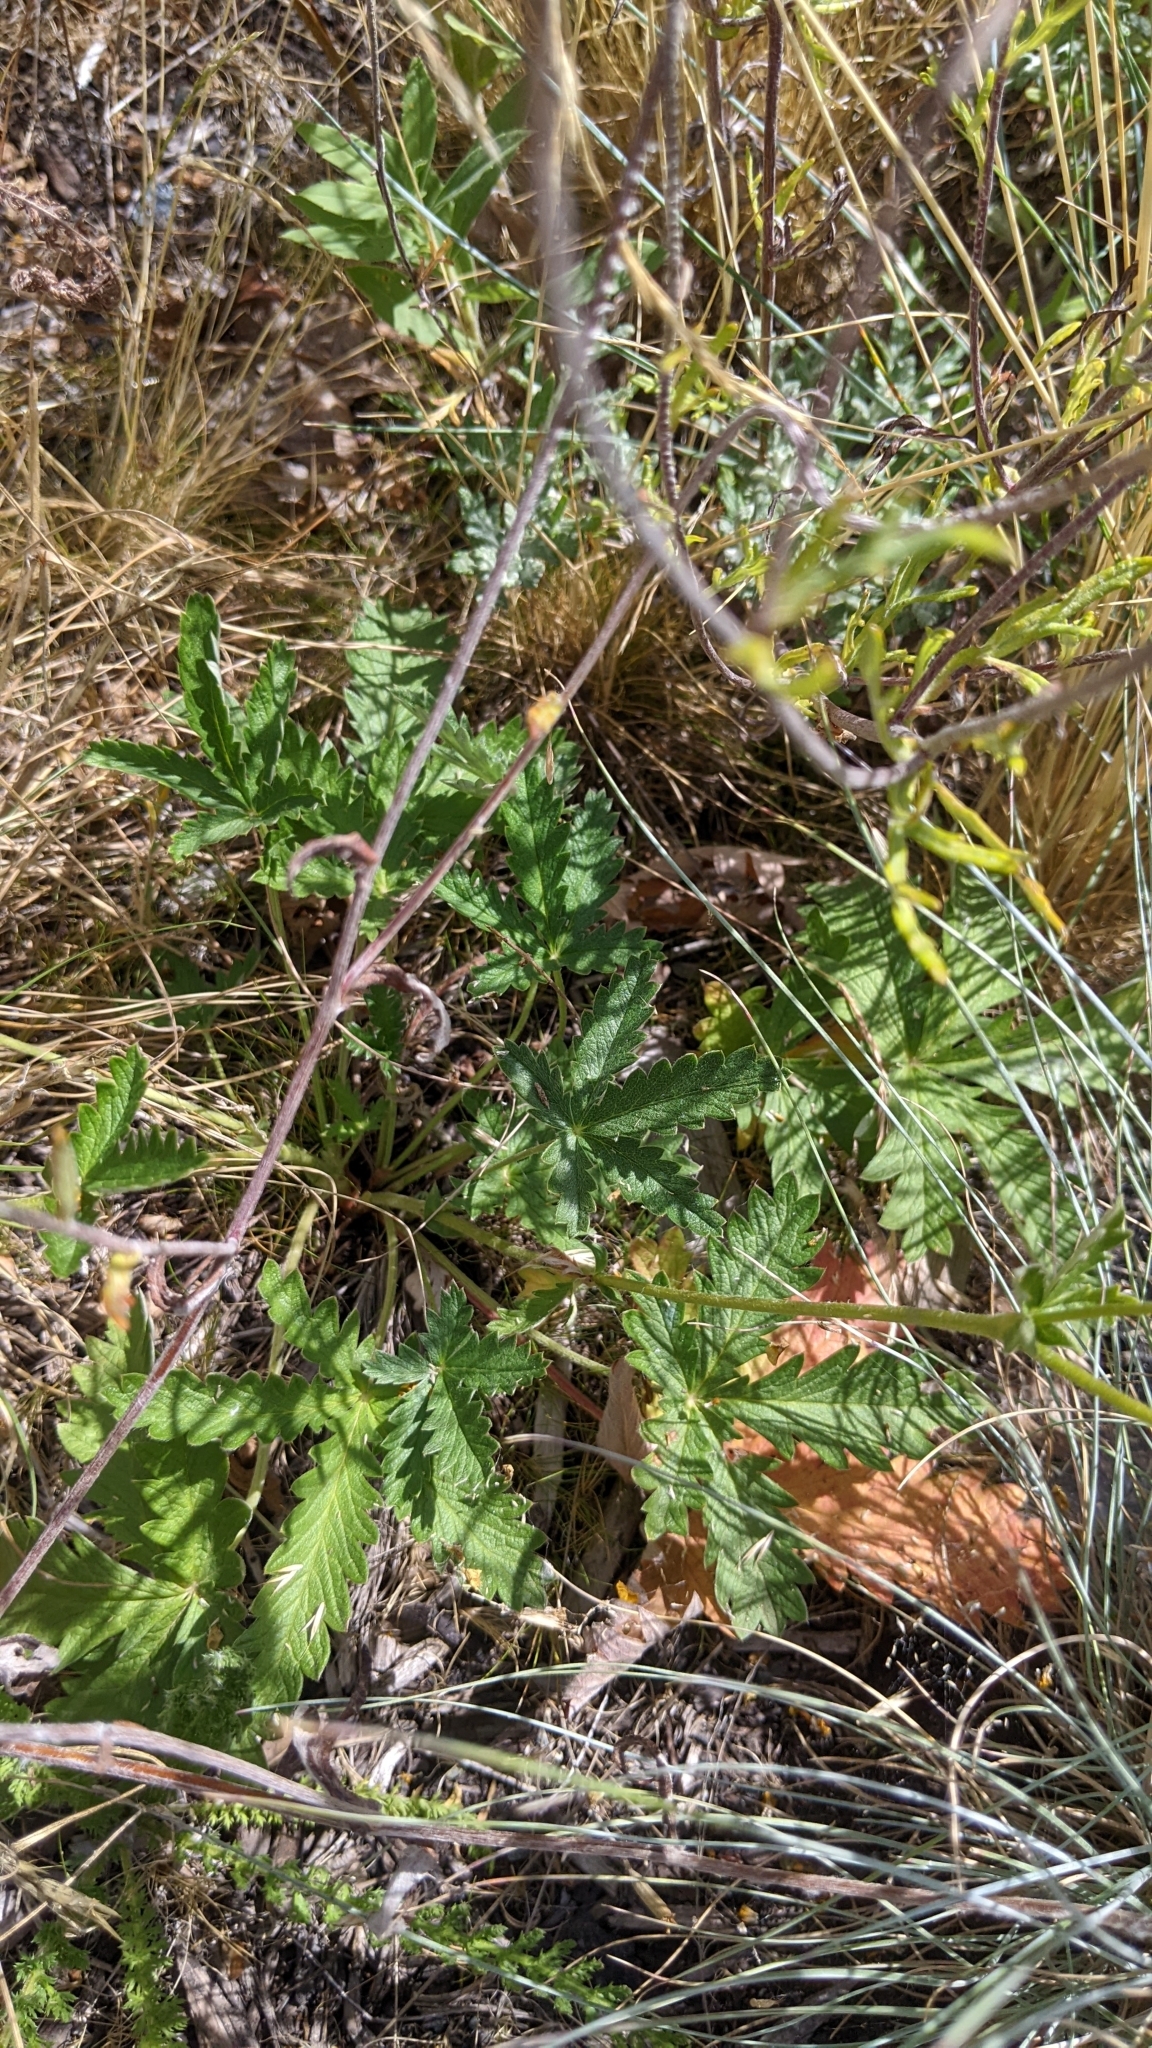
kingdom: Plantae
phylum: Tracheophyta
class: Magnoliopsida
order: Rosales
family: Rosaceae
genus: Potentilla
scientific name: Potentilla gracilis
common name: Graceful cinquefoil
